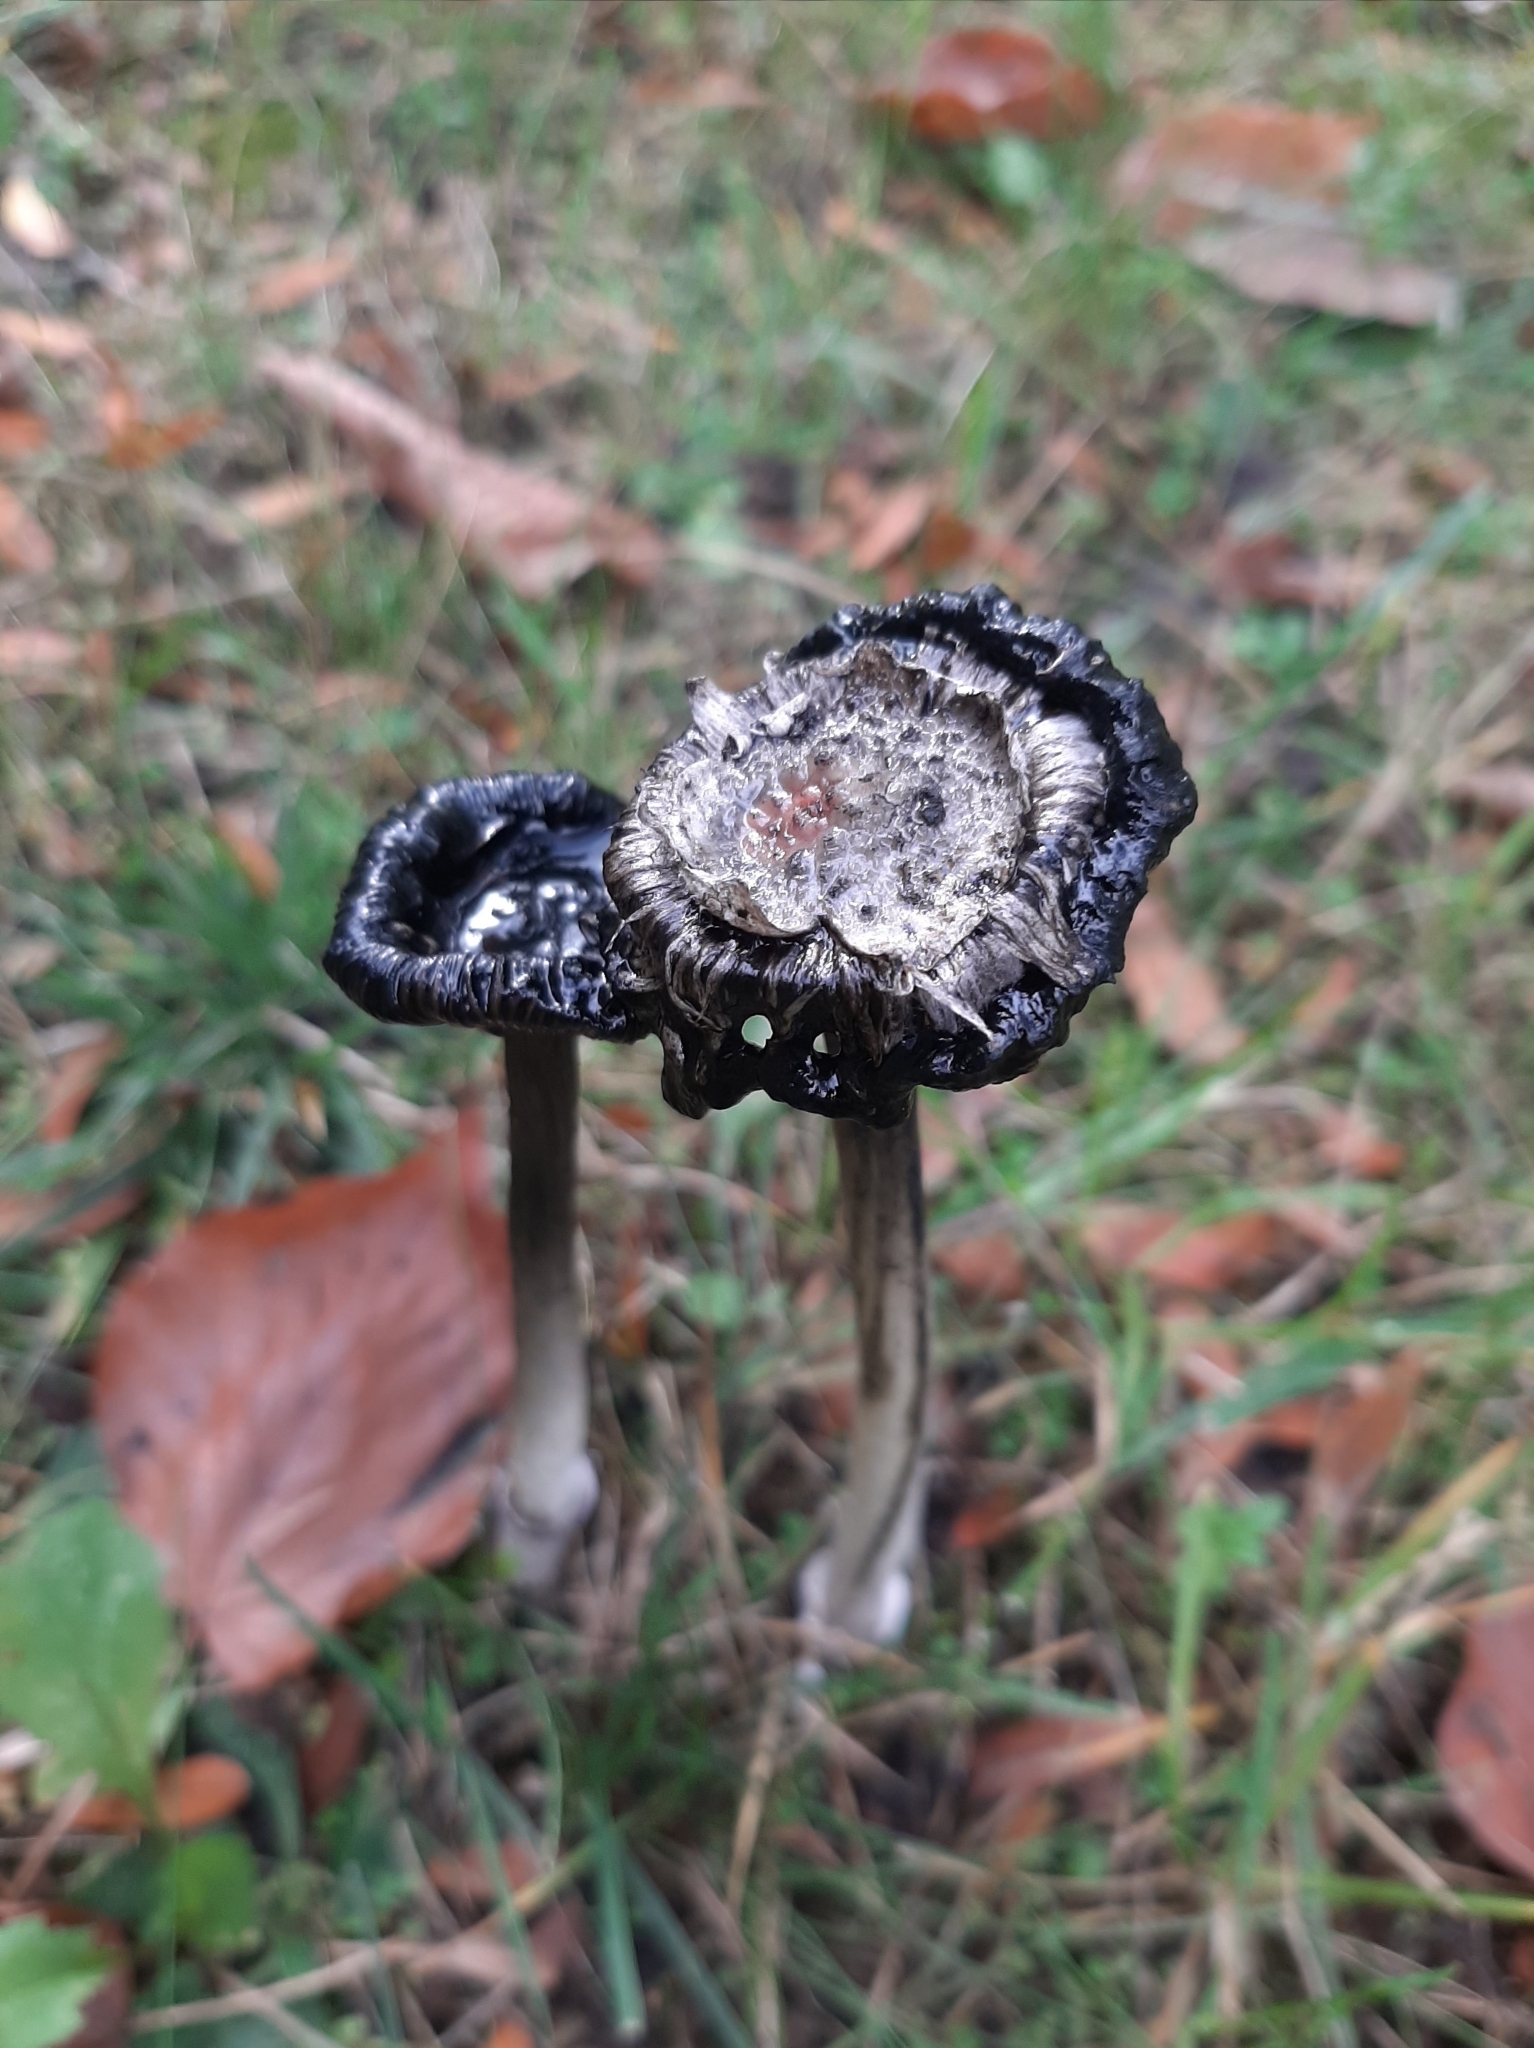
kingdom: Fungi
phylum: Basidiomycota
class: Agaricomycetes
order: Agaricales
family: Agaricaceae
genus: Coprinus
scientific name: Coprinus comatus
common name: Lawyer's wig
